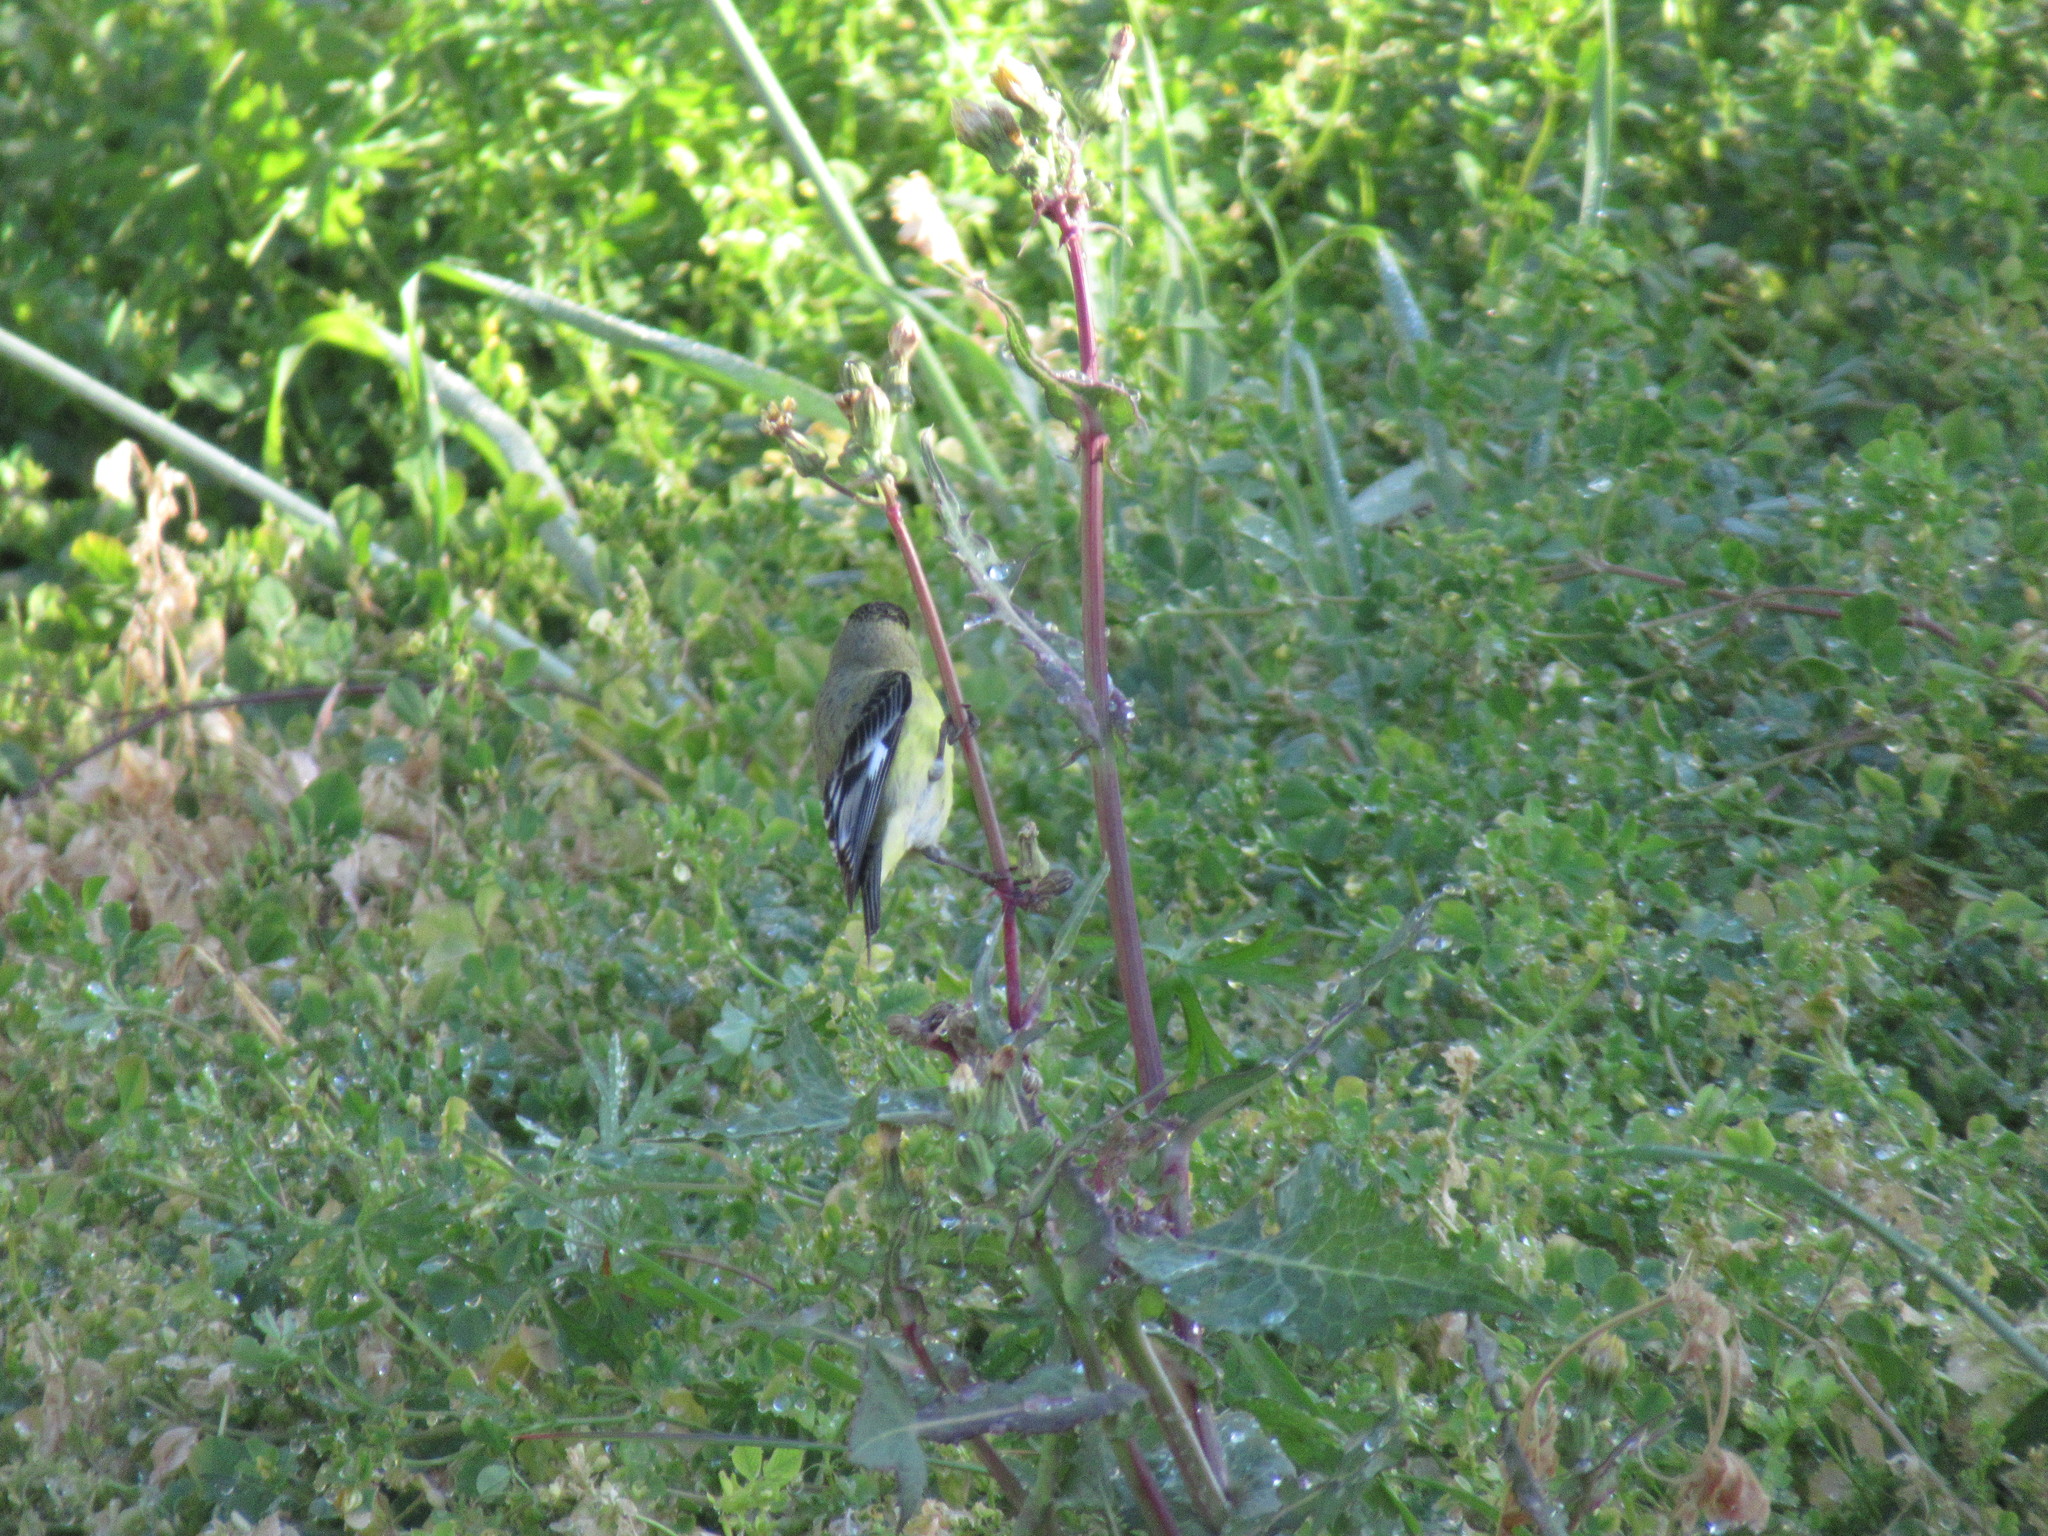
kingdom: Animalia
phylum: Chordata
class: Aves
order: Passeriformes
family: Fringillidae
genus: Spinus
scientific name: Spinus psaltria
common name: Lesser goldfinch
